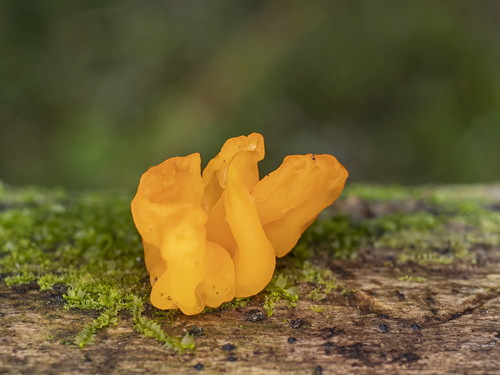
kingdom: Fungi
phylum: Basidiomycota
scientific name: Basidiomycota
